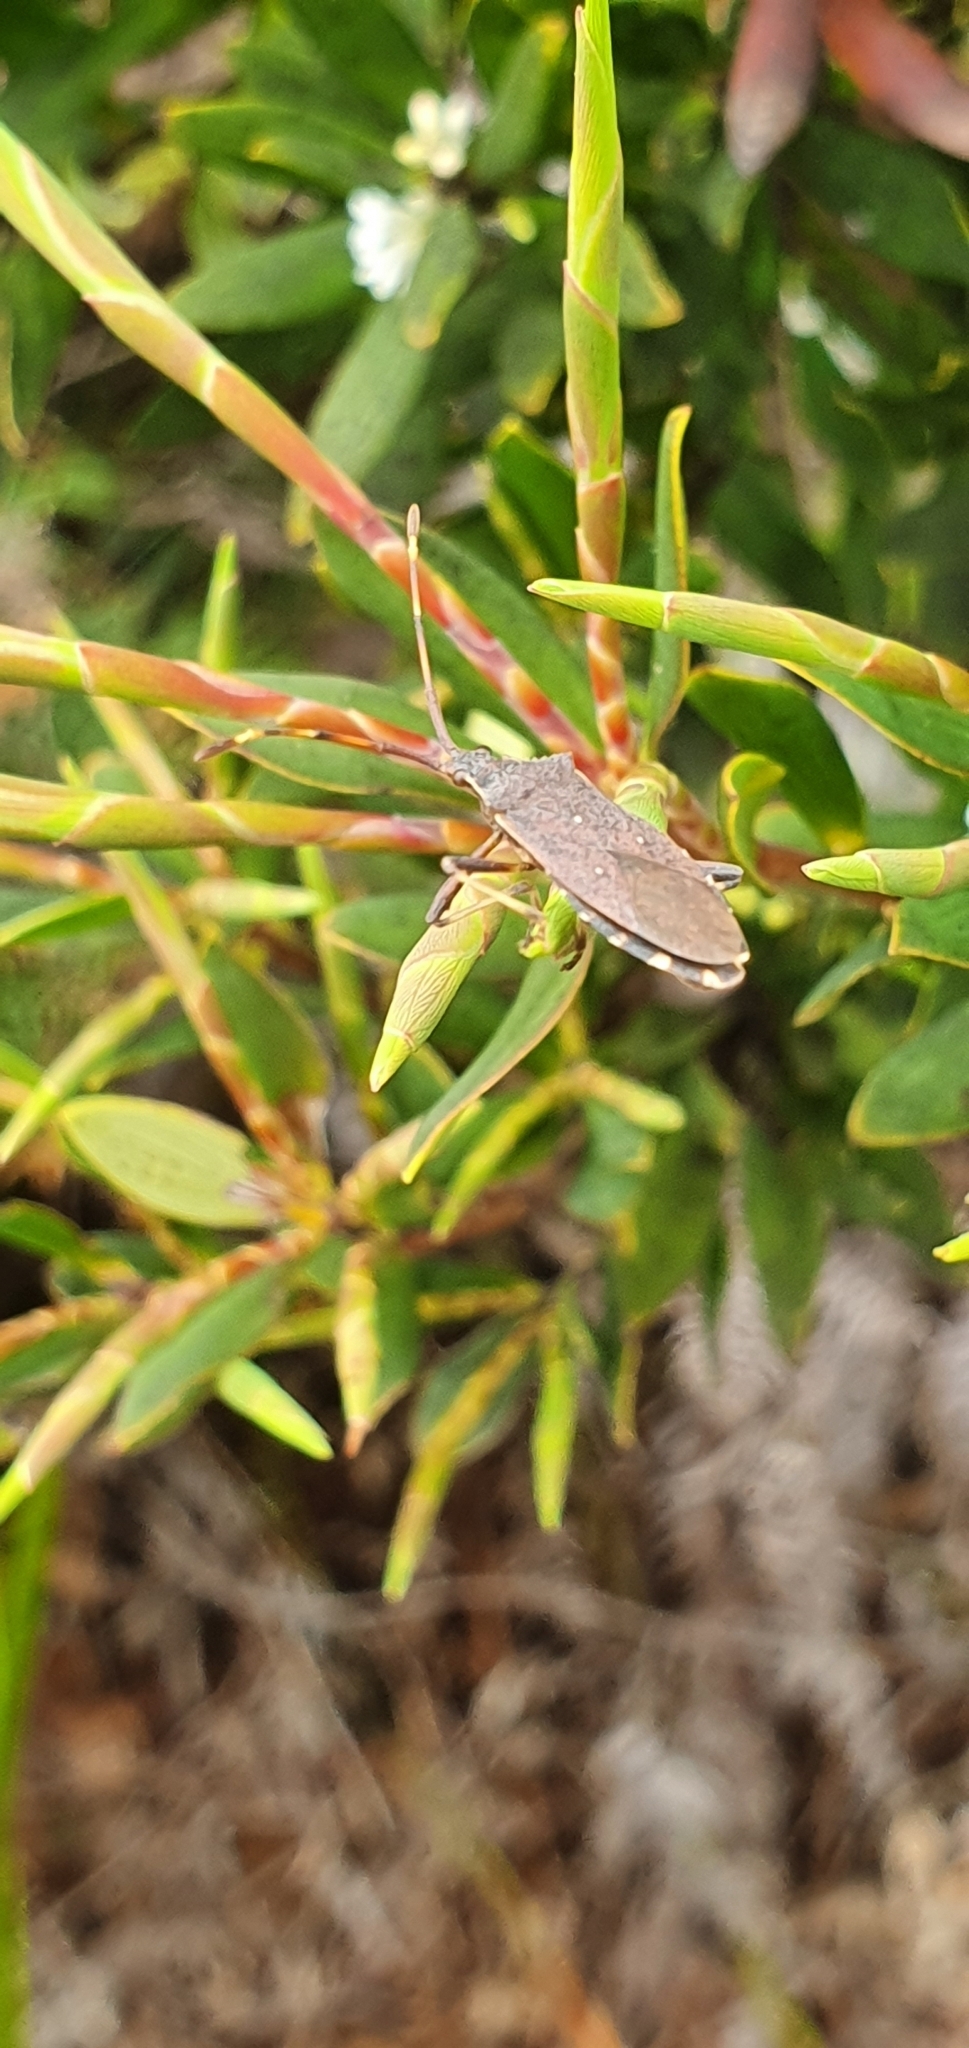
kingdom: Animalia
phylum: Arthropoda
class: Insecta
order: Hemiptera
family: Coreidae
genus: Gelonus
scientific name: Gelonus tasmanicus
